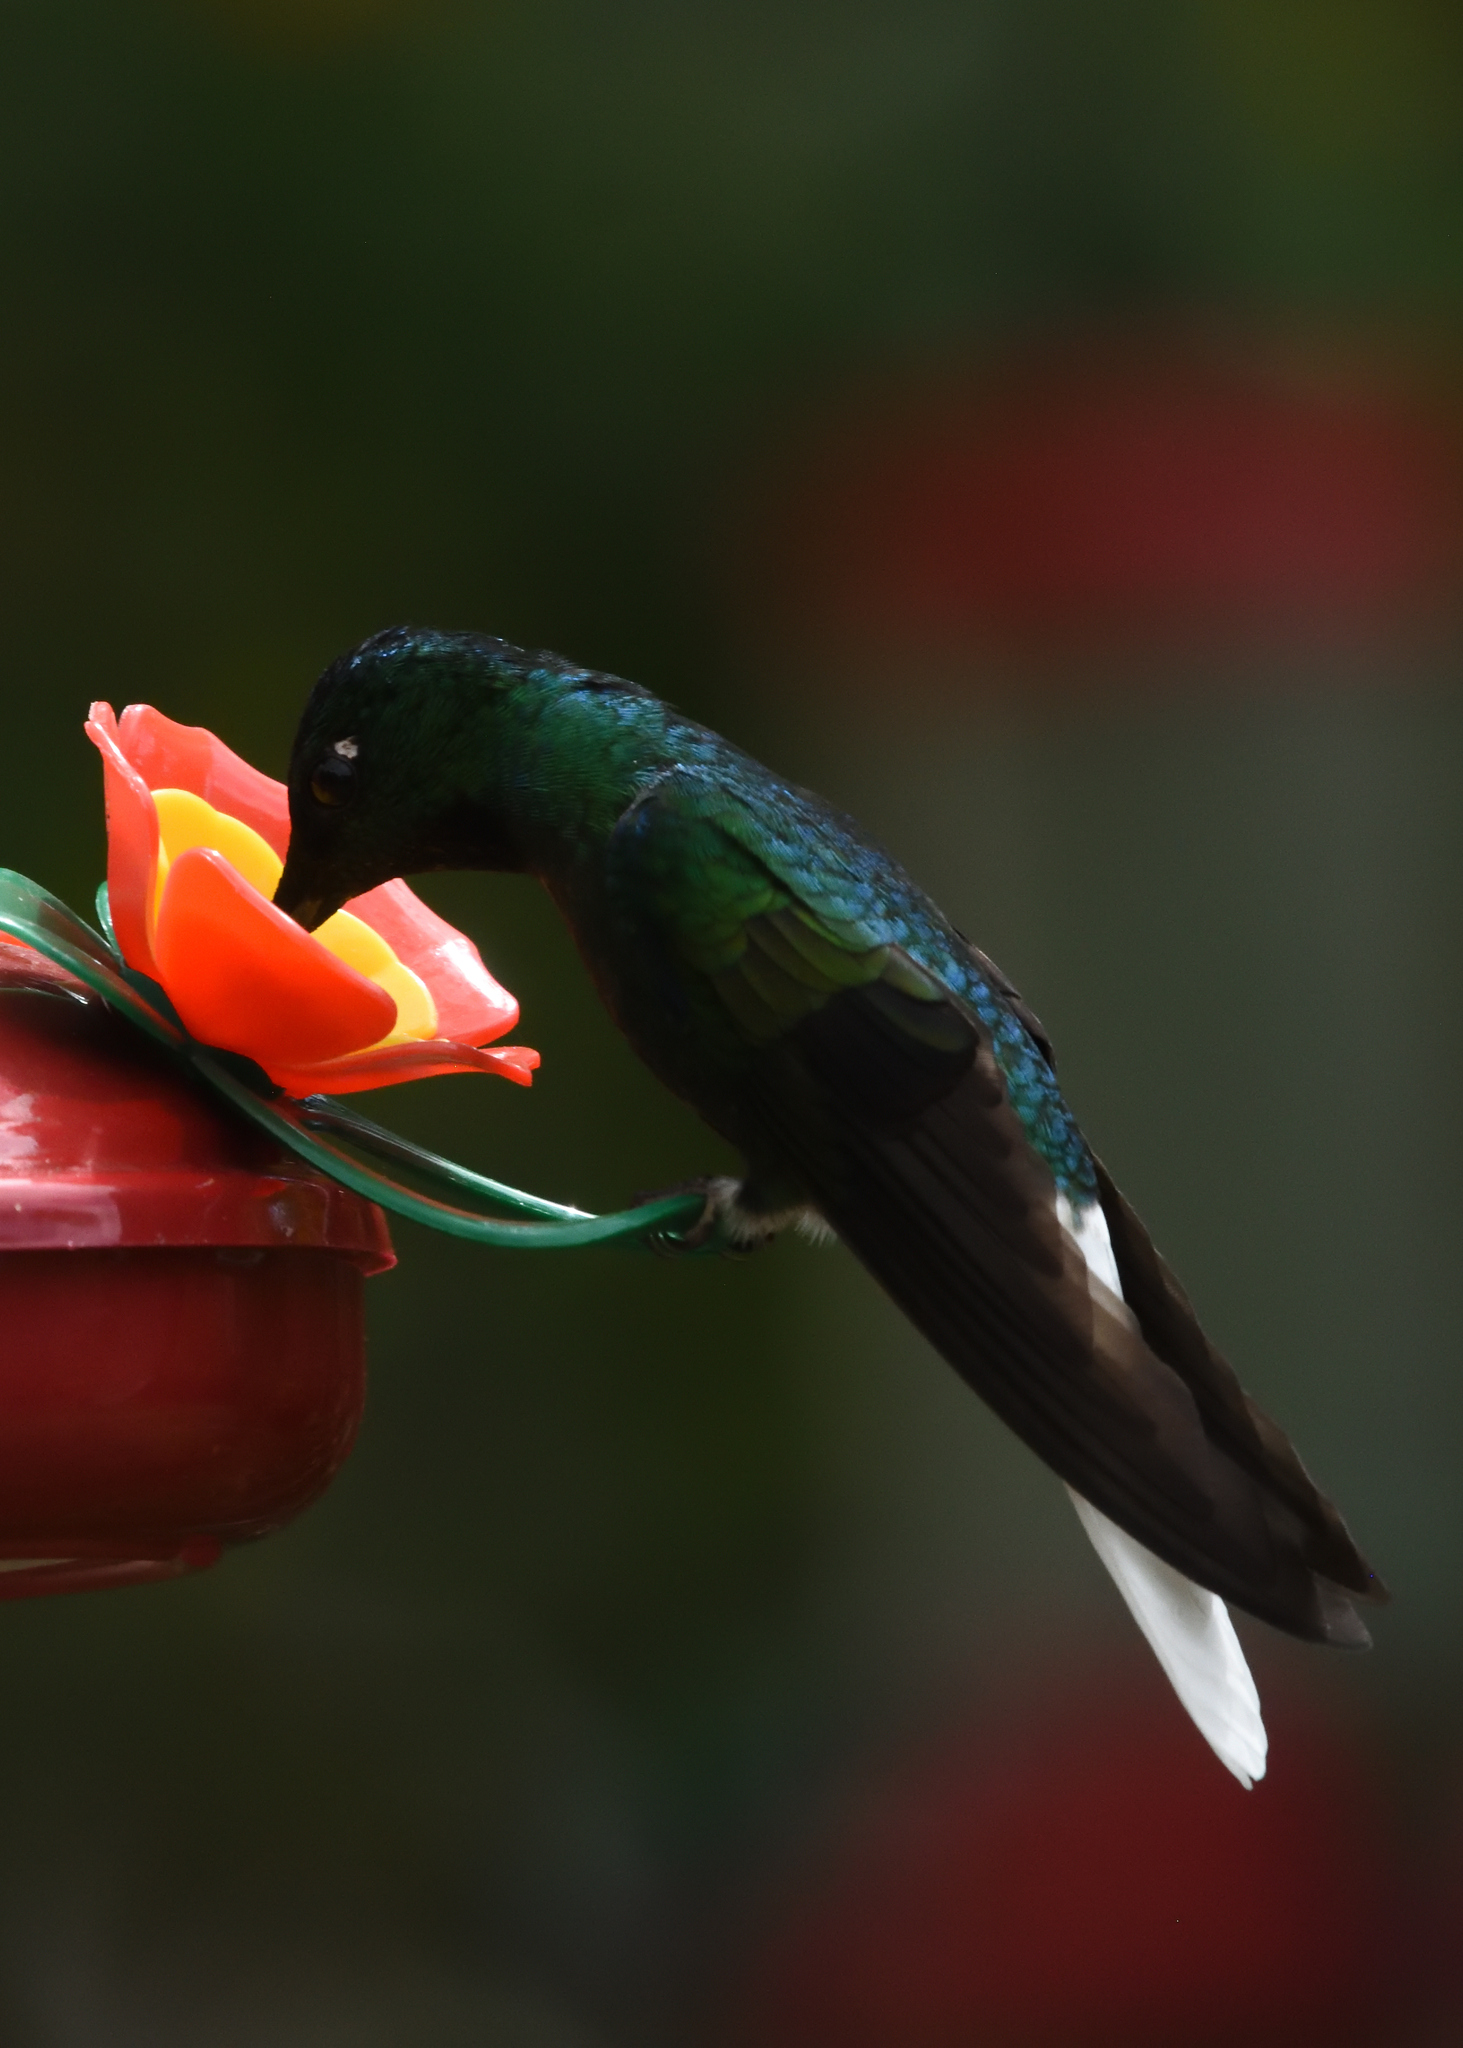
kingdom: Animalia
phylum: Chordata
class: Aves
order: Apodiformes
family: Trochilidae
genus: Coeligena
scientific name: Coeligena phalerata
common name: White-tailed starfrontlet
